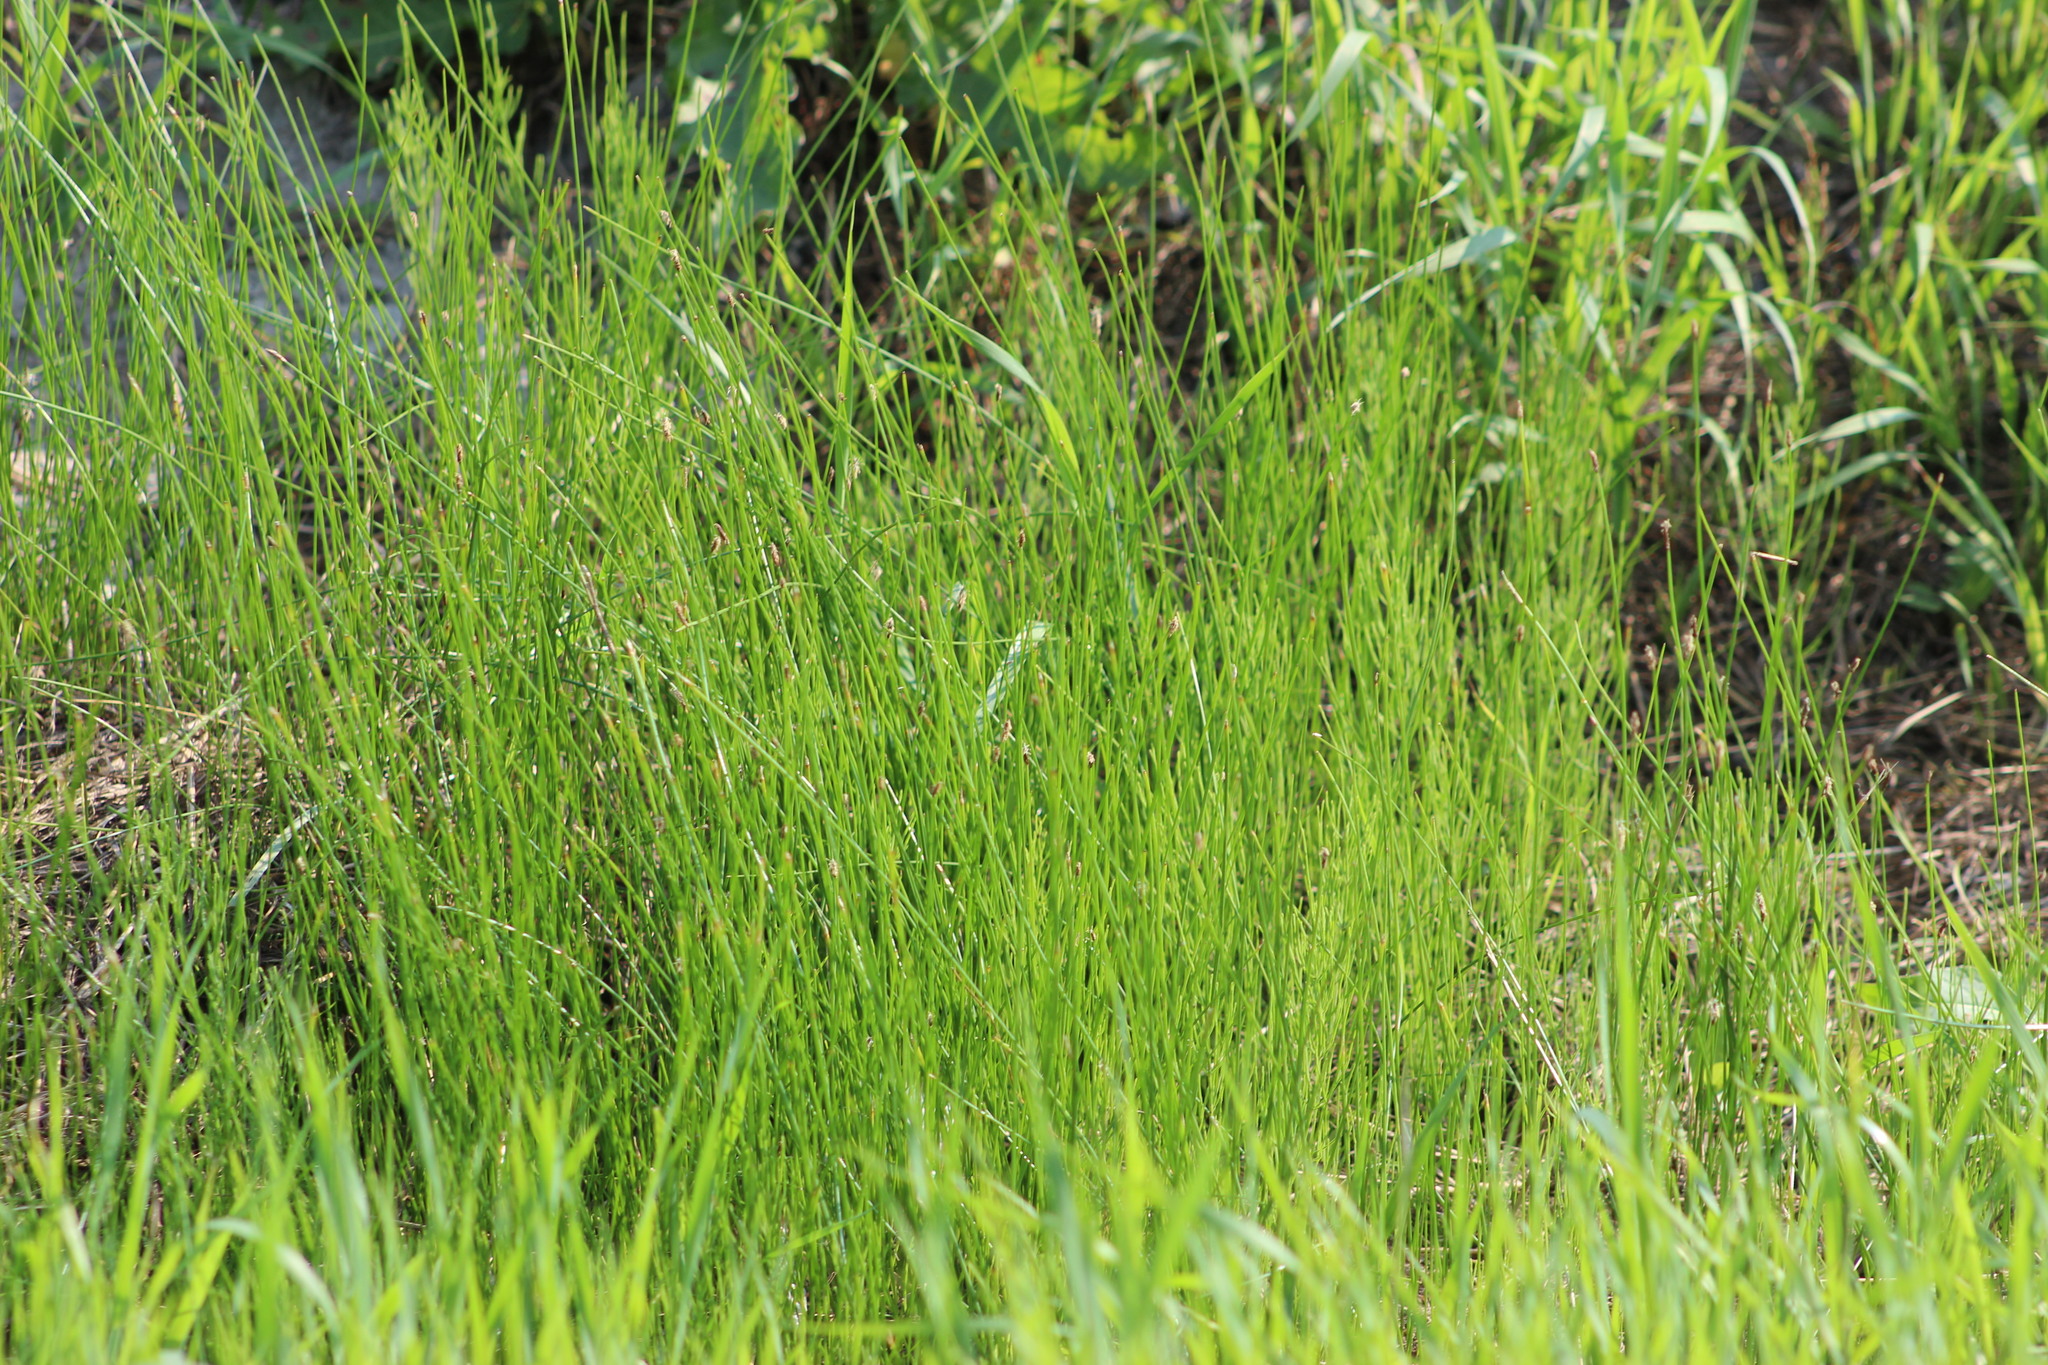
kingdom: Plantae
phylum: Tracheophyta
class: Polypodiopsida
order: Equisetales
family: Equisetaceae
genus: Equisetum
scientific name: Equisetum fluviatile
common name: Water horsetail
